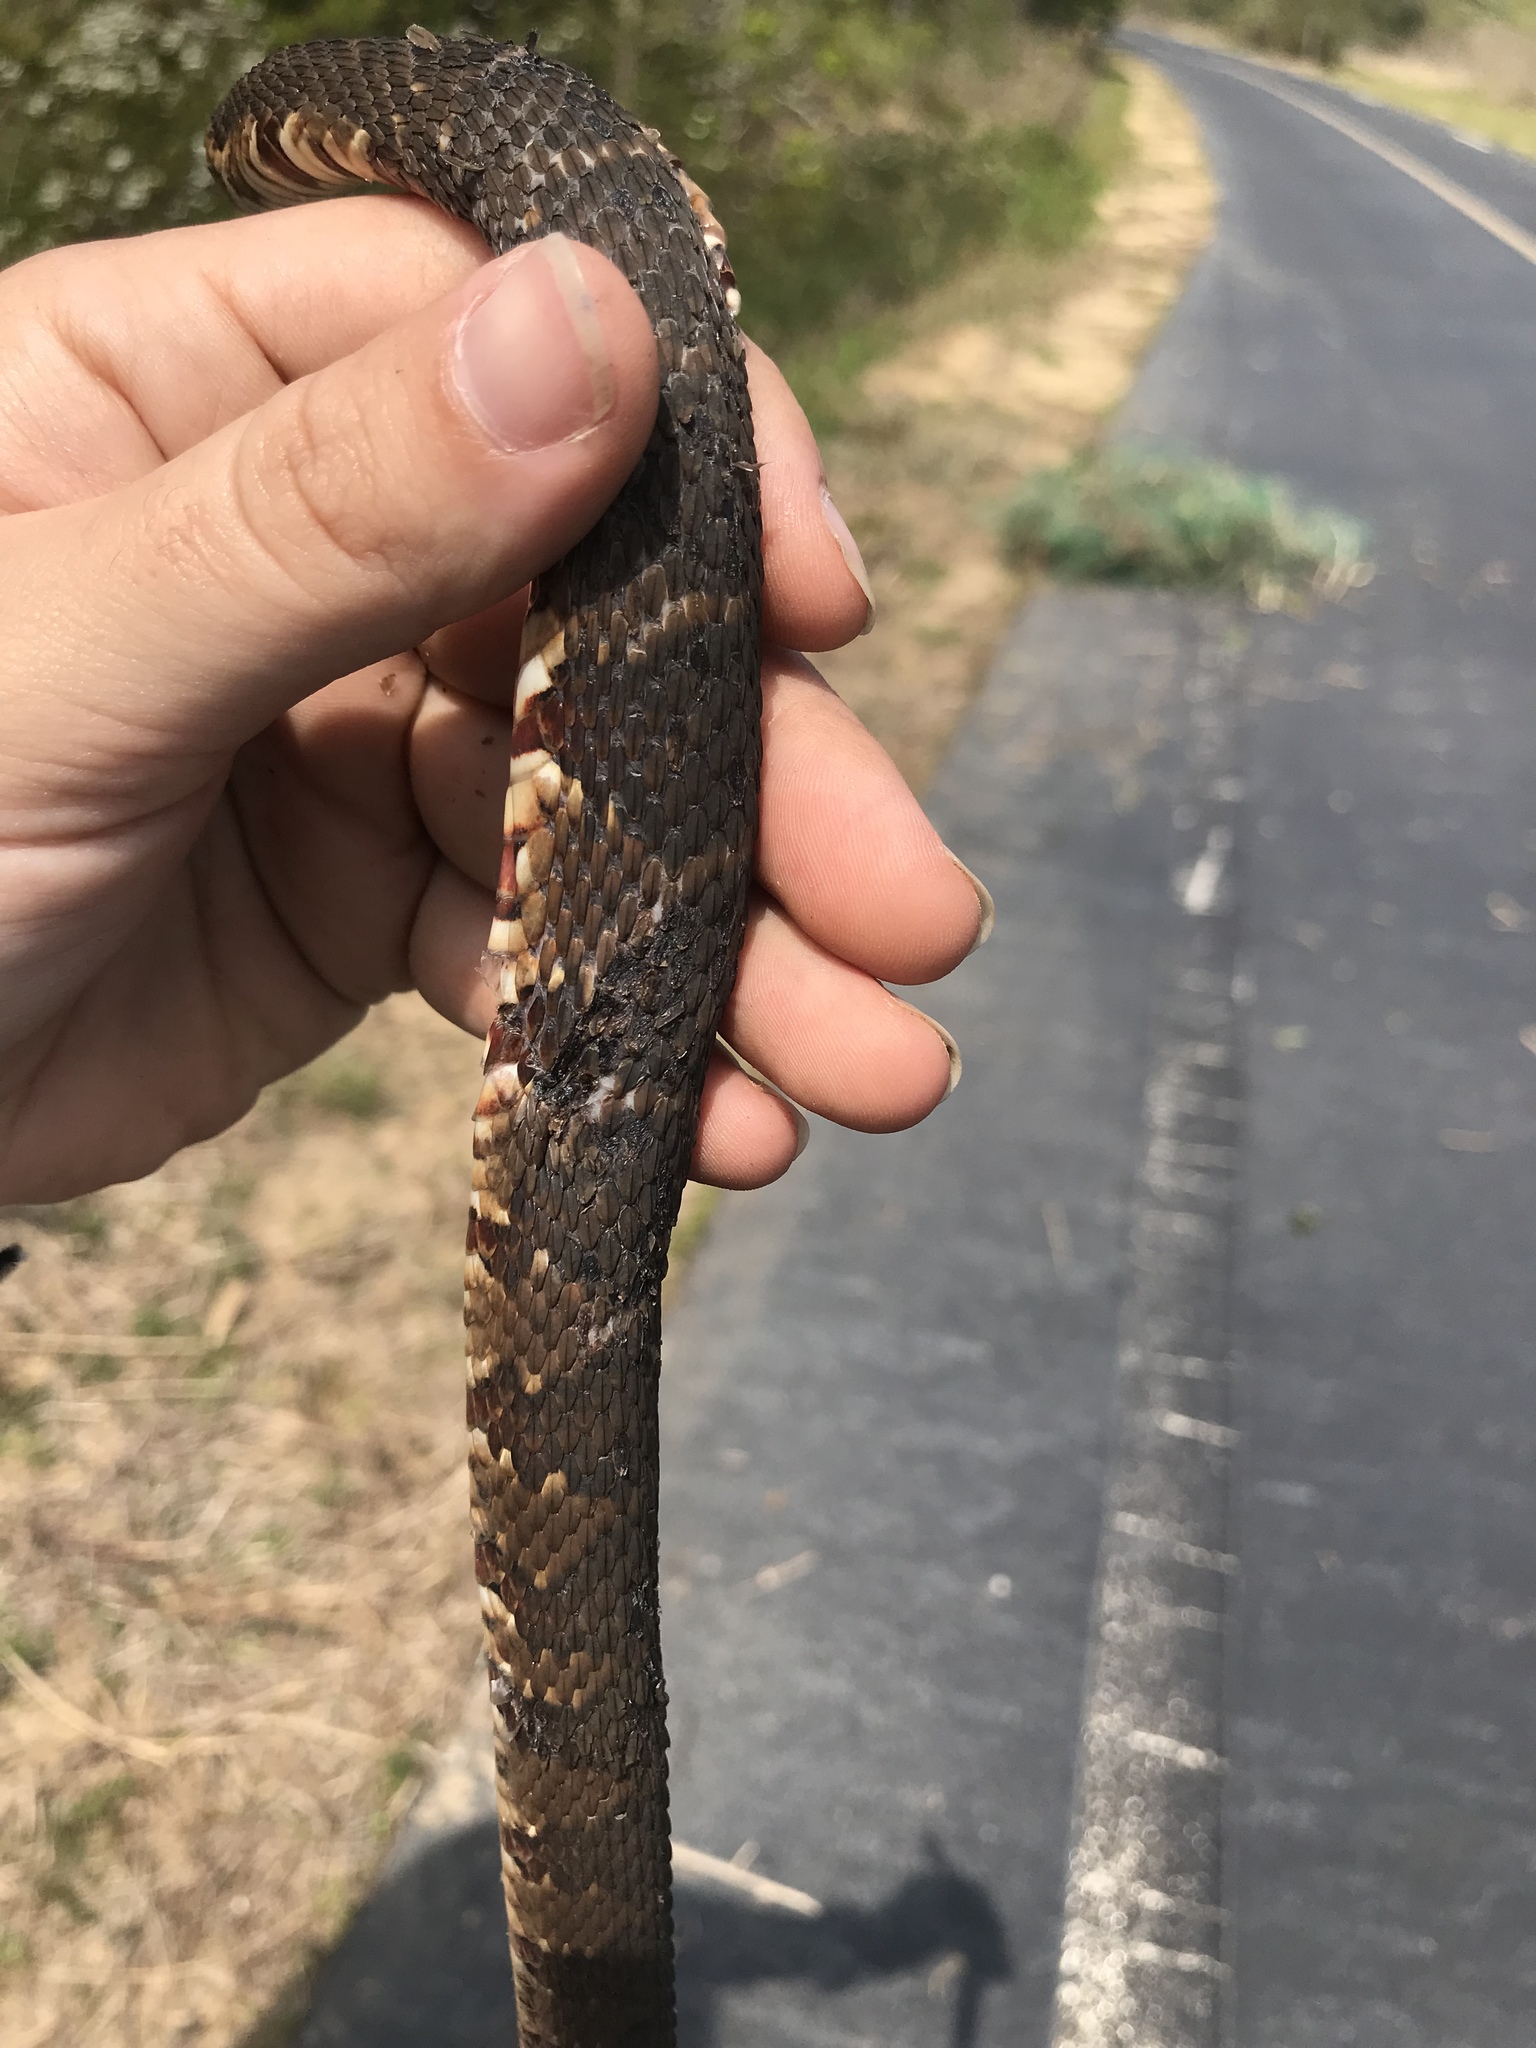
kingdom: Animalia
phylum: Chordata
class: Squamata
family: Colubridae
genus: Nerodia
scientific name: Nerodia fasciata
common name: Southern water snake
